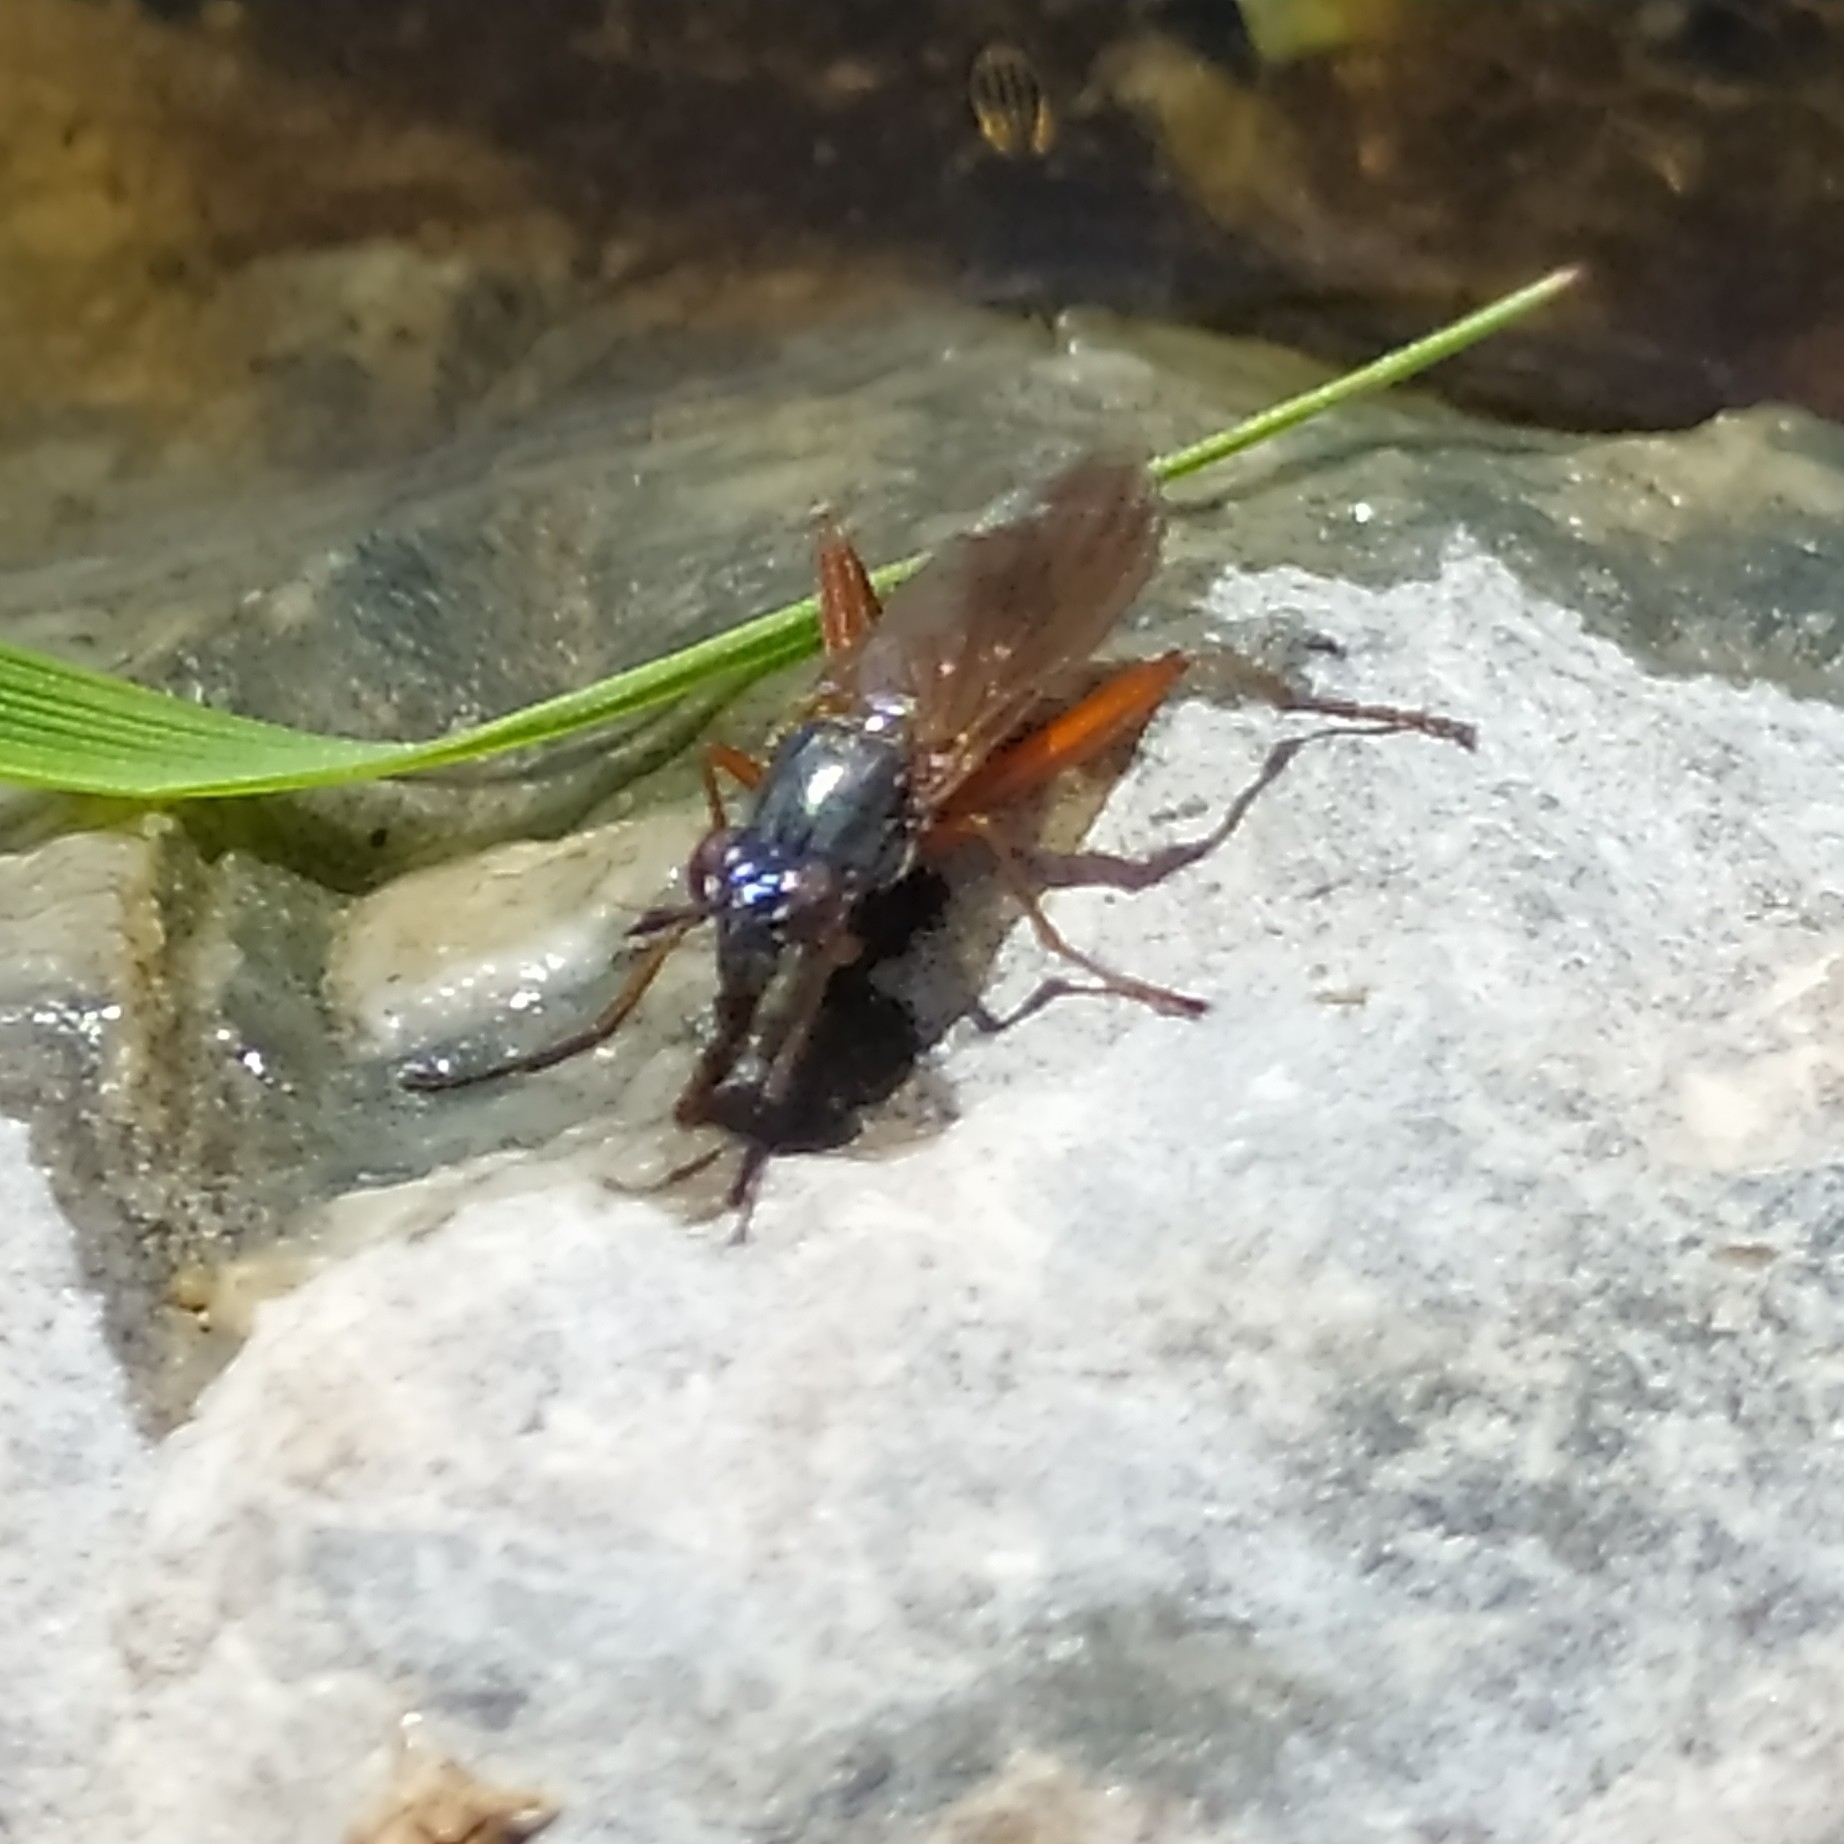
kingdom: Animalia
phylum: Arthropoda
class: Insecta
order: Diptera
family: Sciomyzidae
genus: Sepedon
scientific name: Sepedon sphegea
